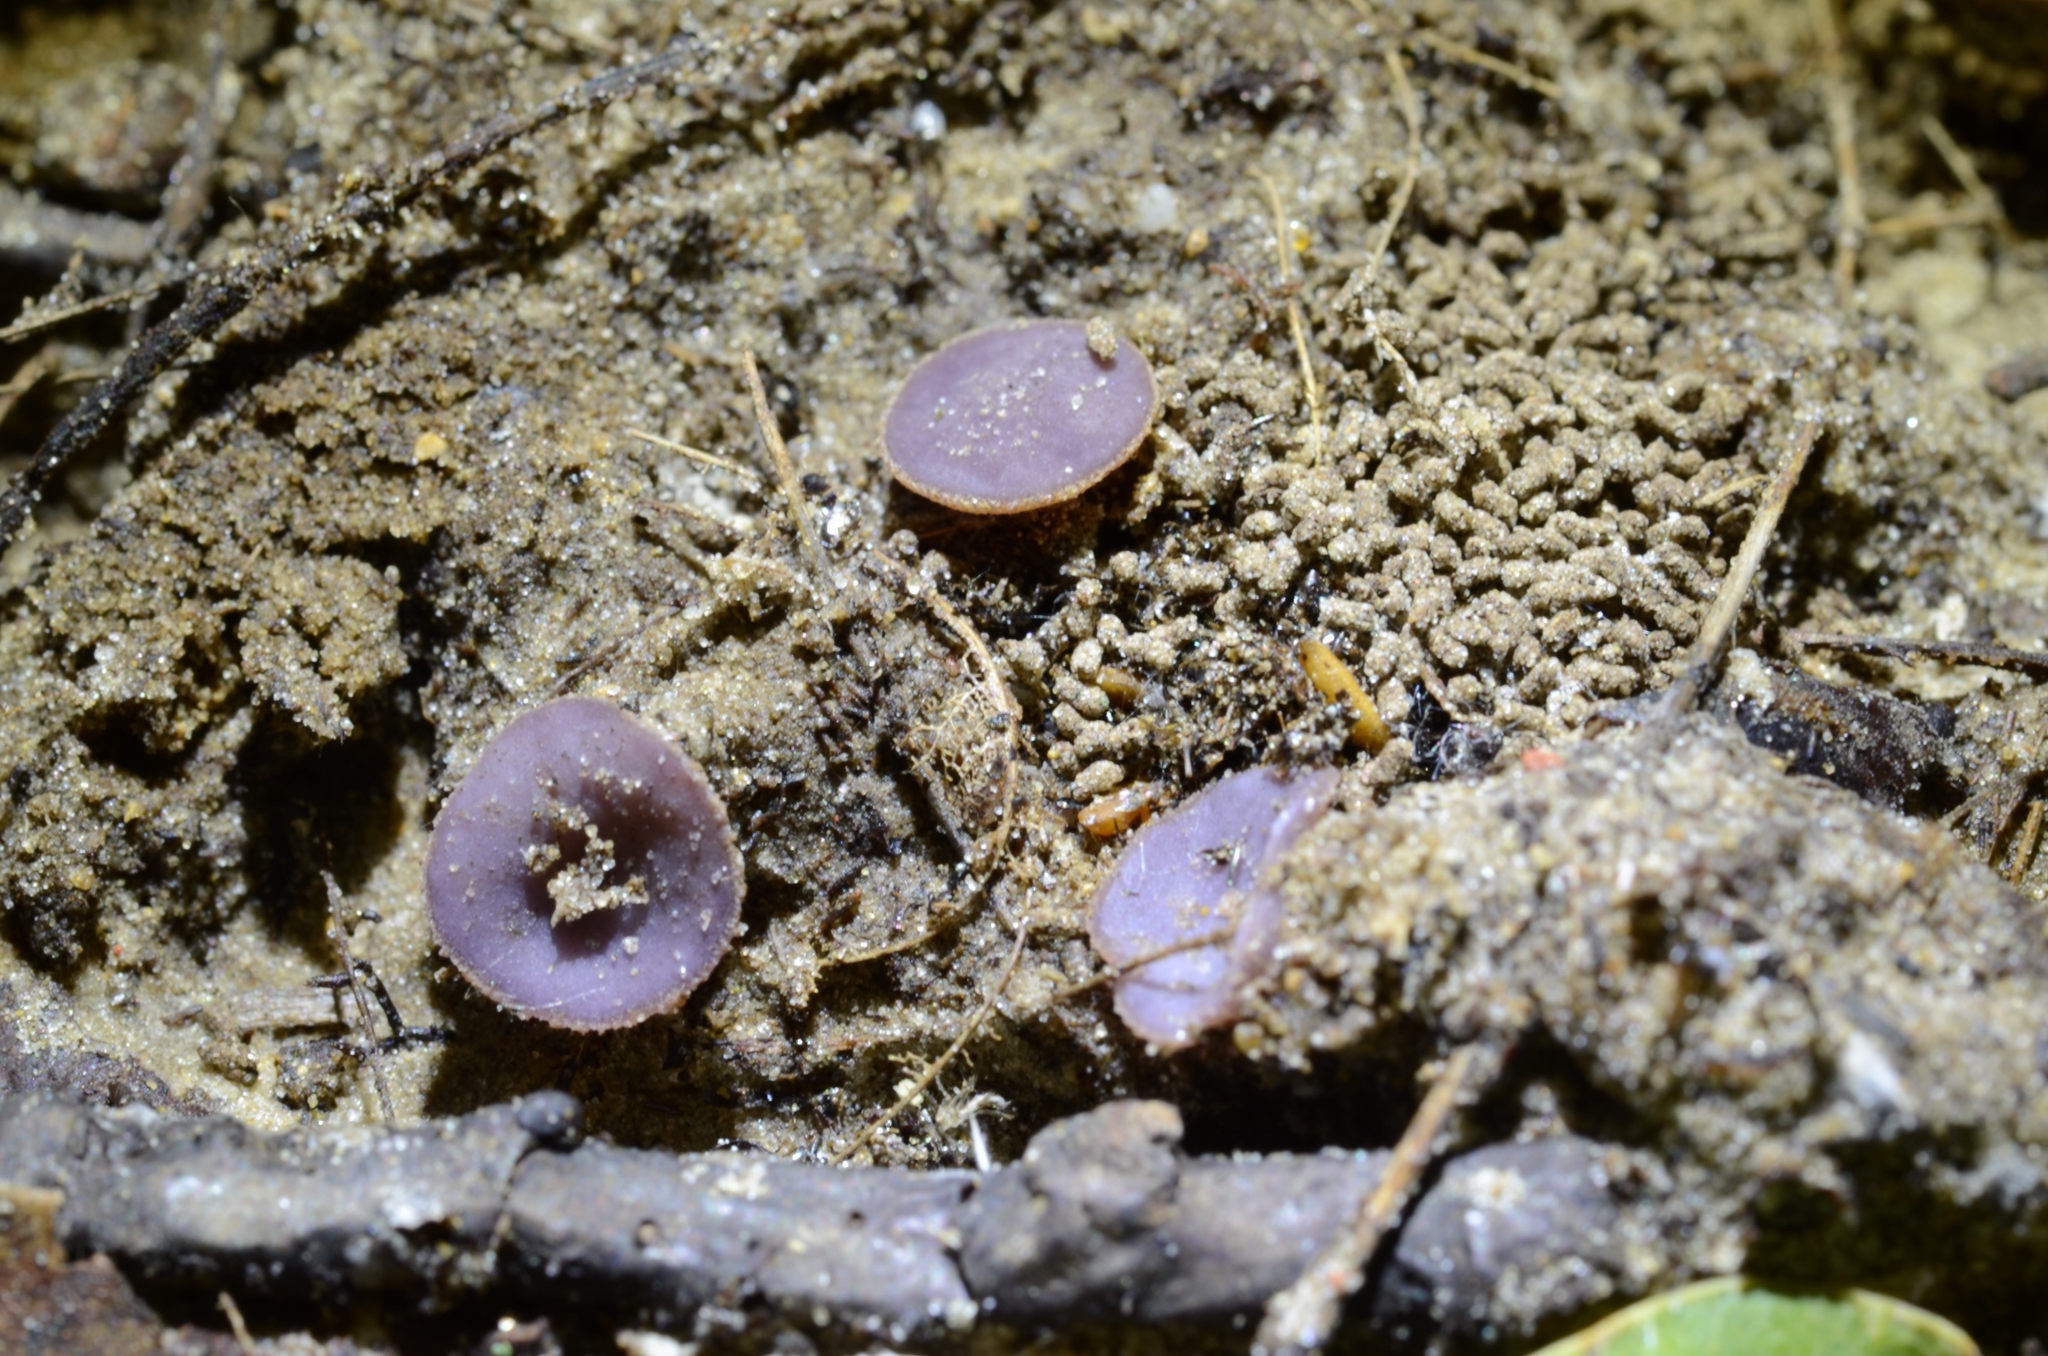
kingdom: Fungi
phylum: Ascomycota
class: Pezizomycetes
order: Pezizales
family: Pezizaceae
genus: Ionopezia
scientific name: Ionopezia gerardii
